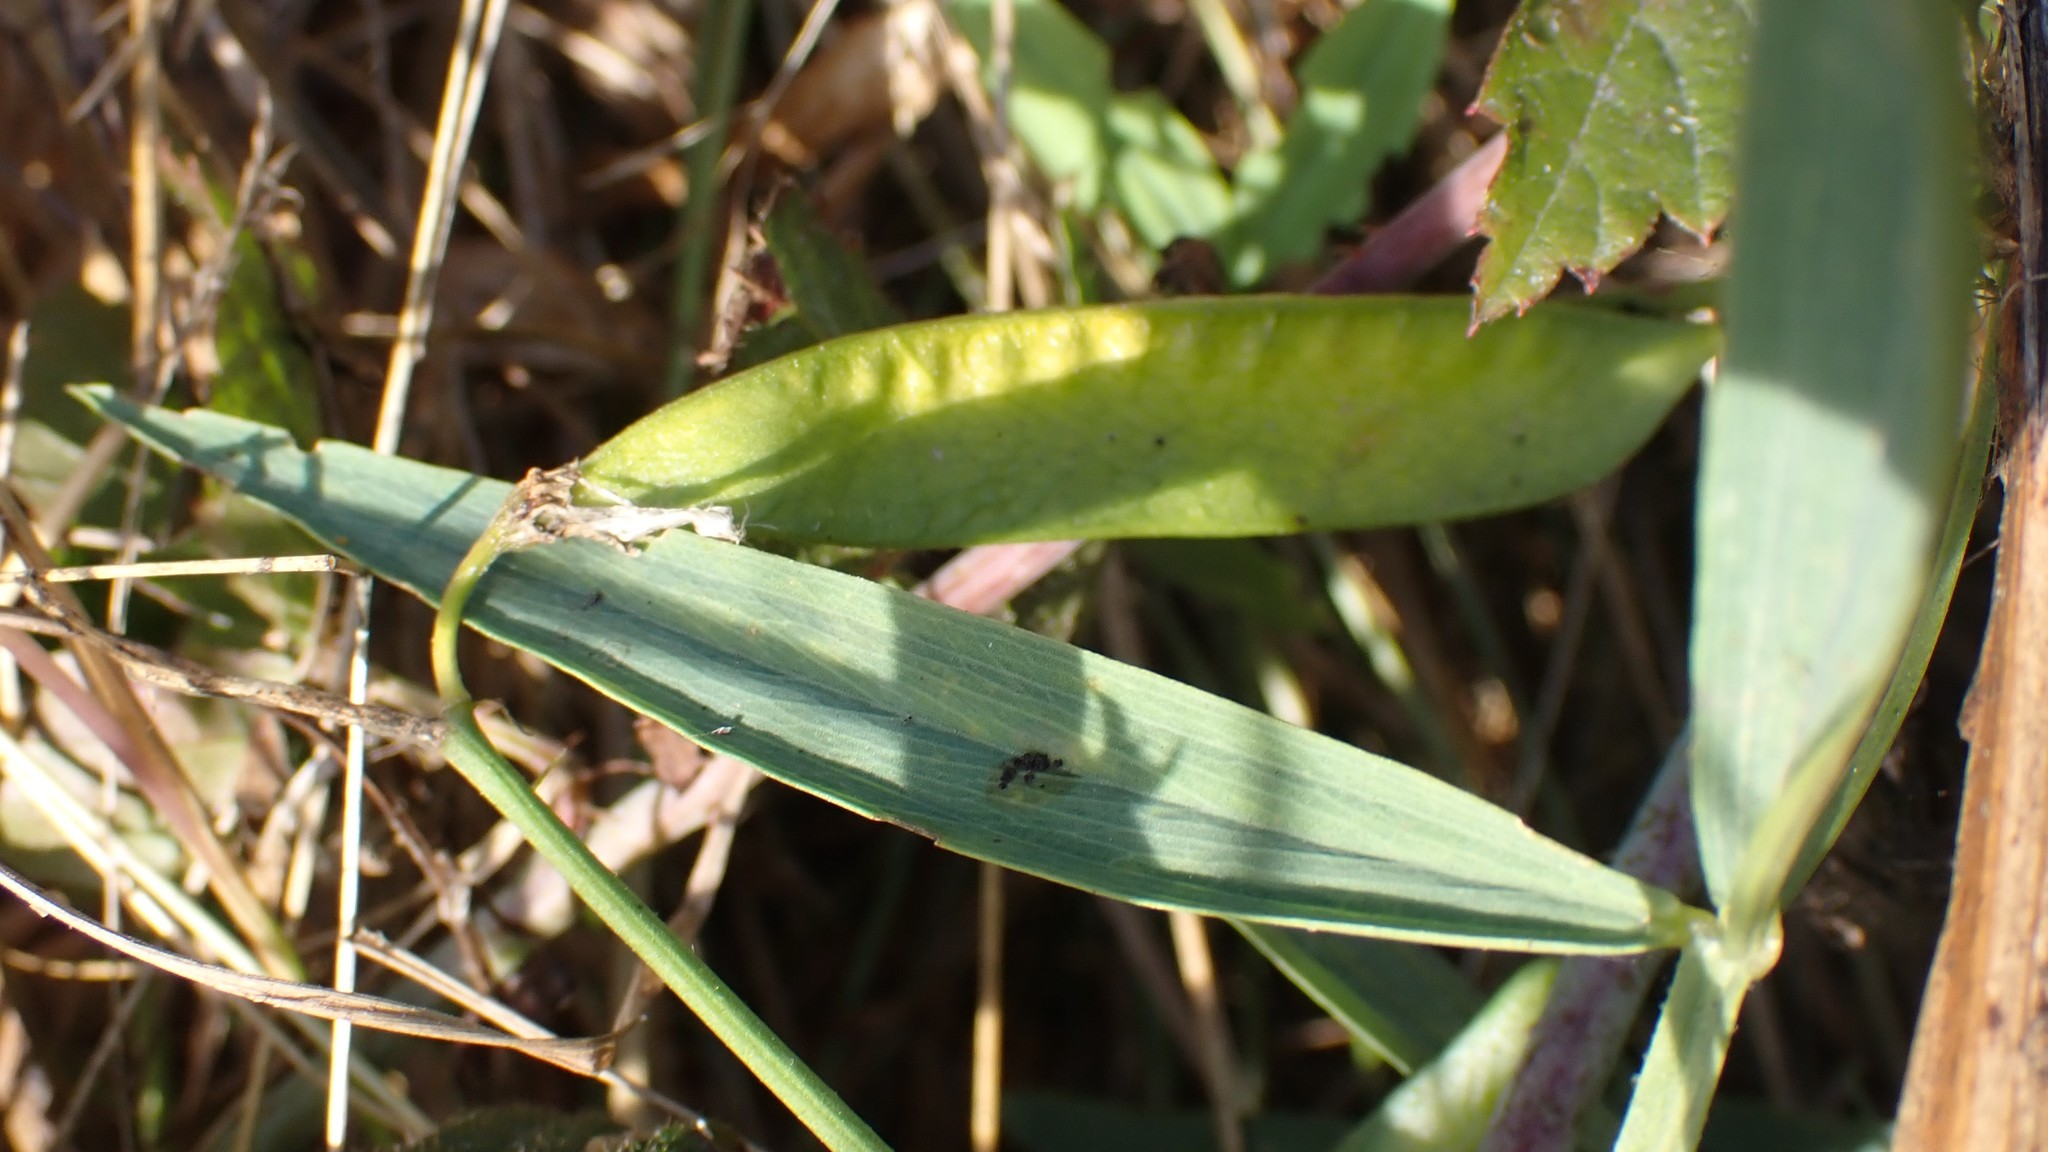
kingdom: Plantae
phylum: Tracheophyta
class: Magnoliopsida
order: Fabales
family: Fabaceae
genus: Lathyrus
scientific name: Lathyrus sylvestris
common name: Flat pea
